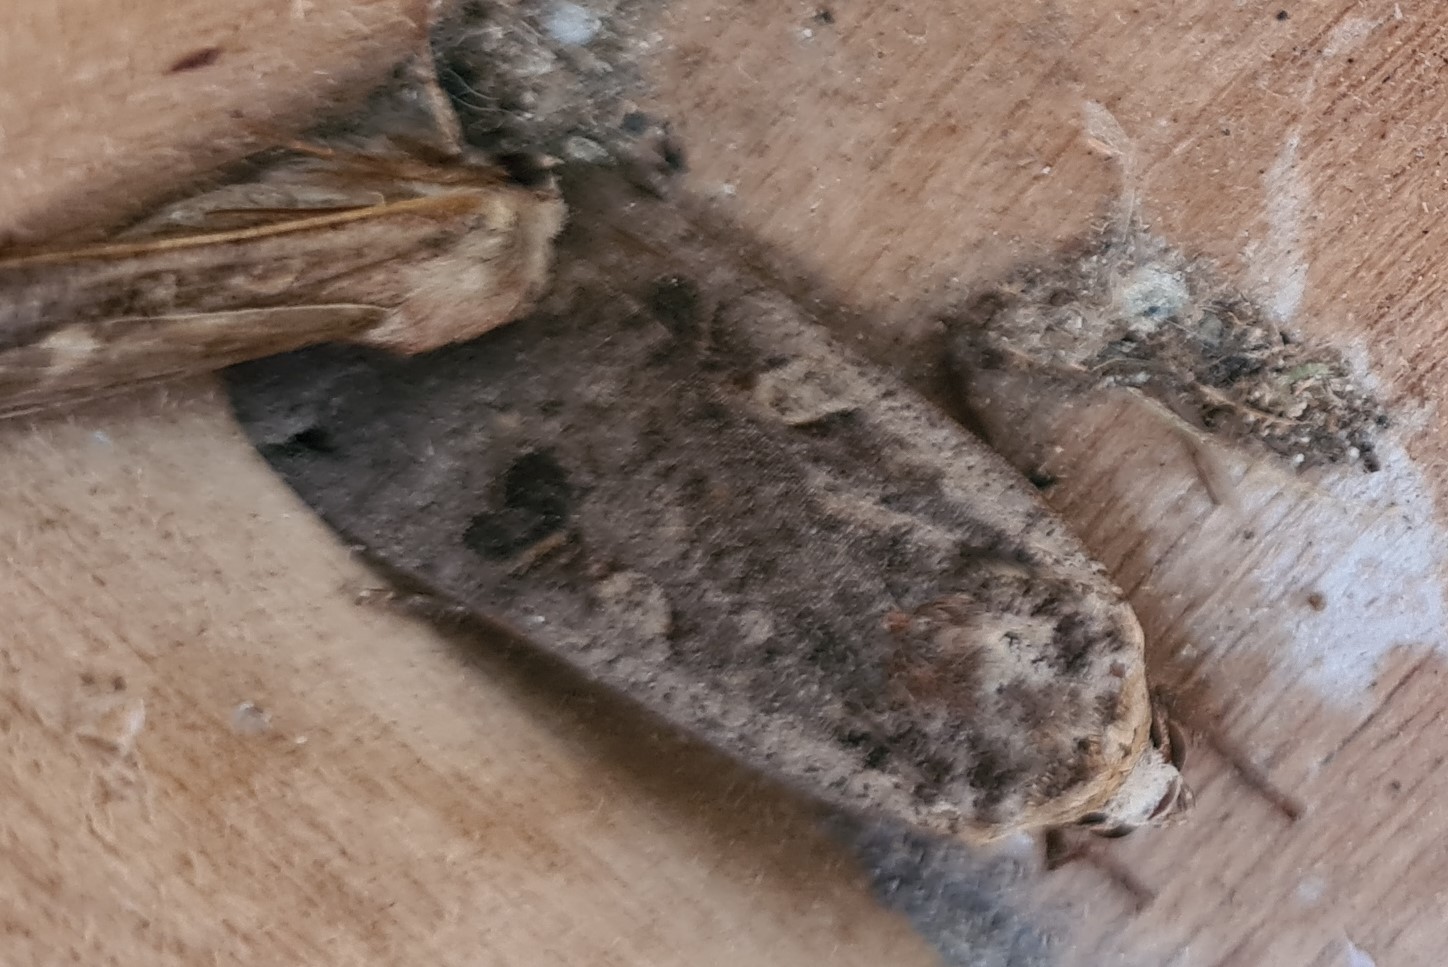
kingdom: Animalia
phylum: Arthropoda
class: Insecta
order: Lepidoptera
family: Noctuidae
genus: Noctua
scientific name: Noctua pronuba
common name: Large yellow underwing
